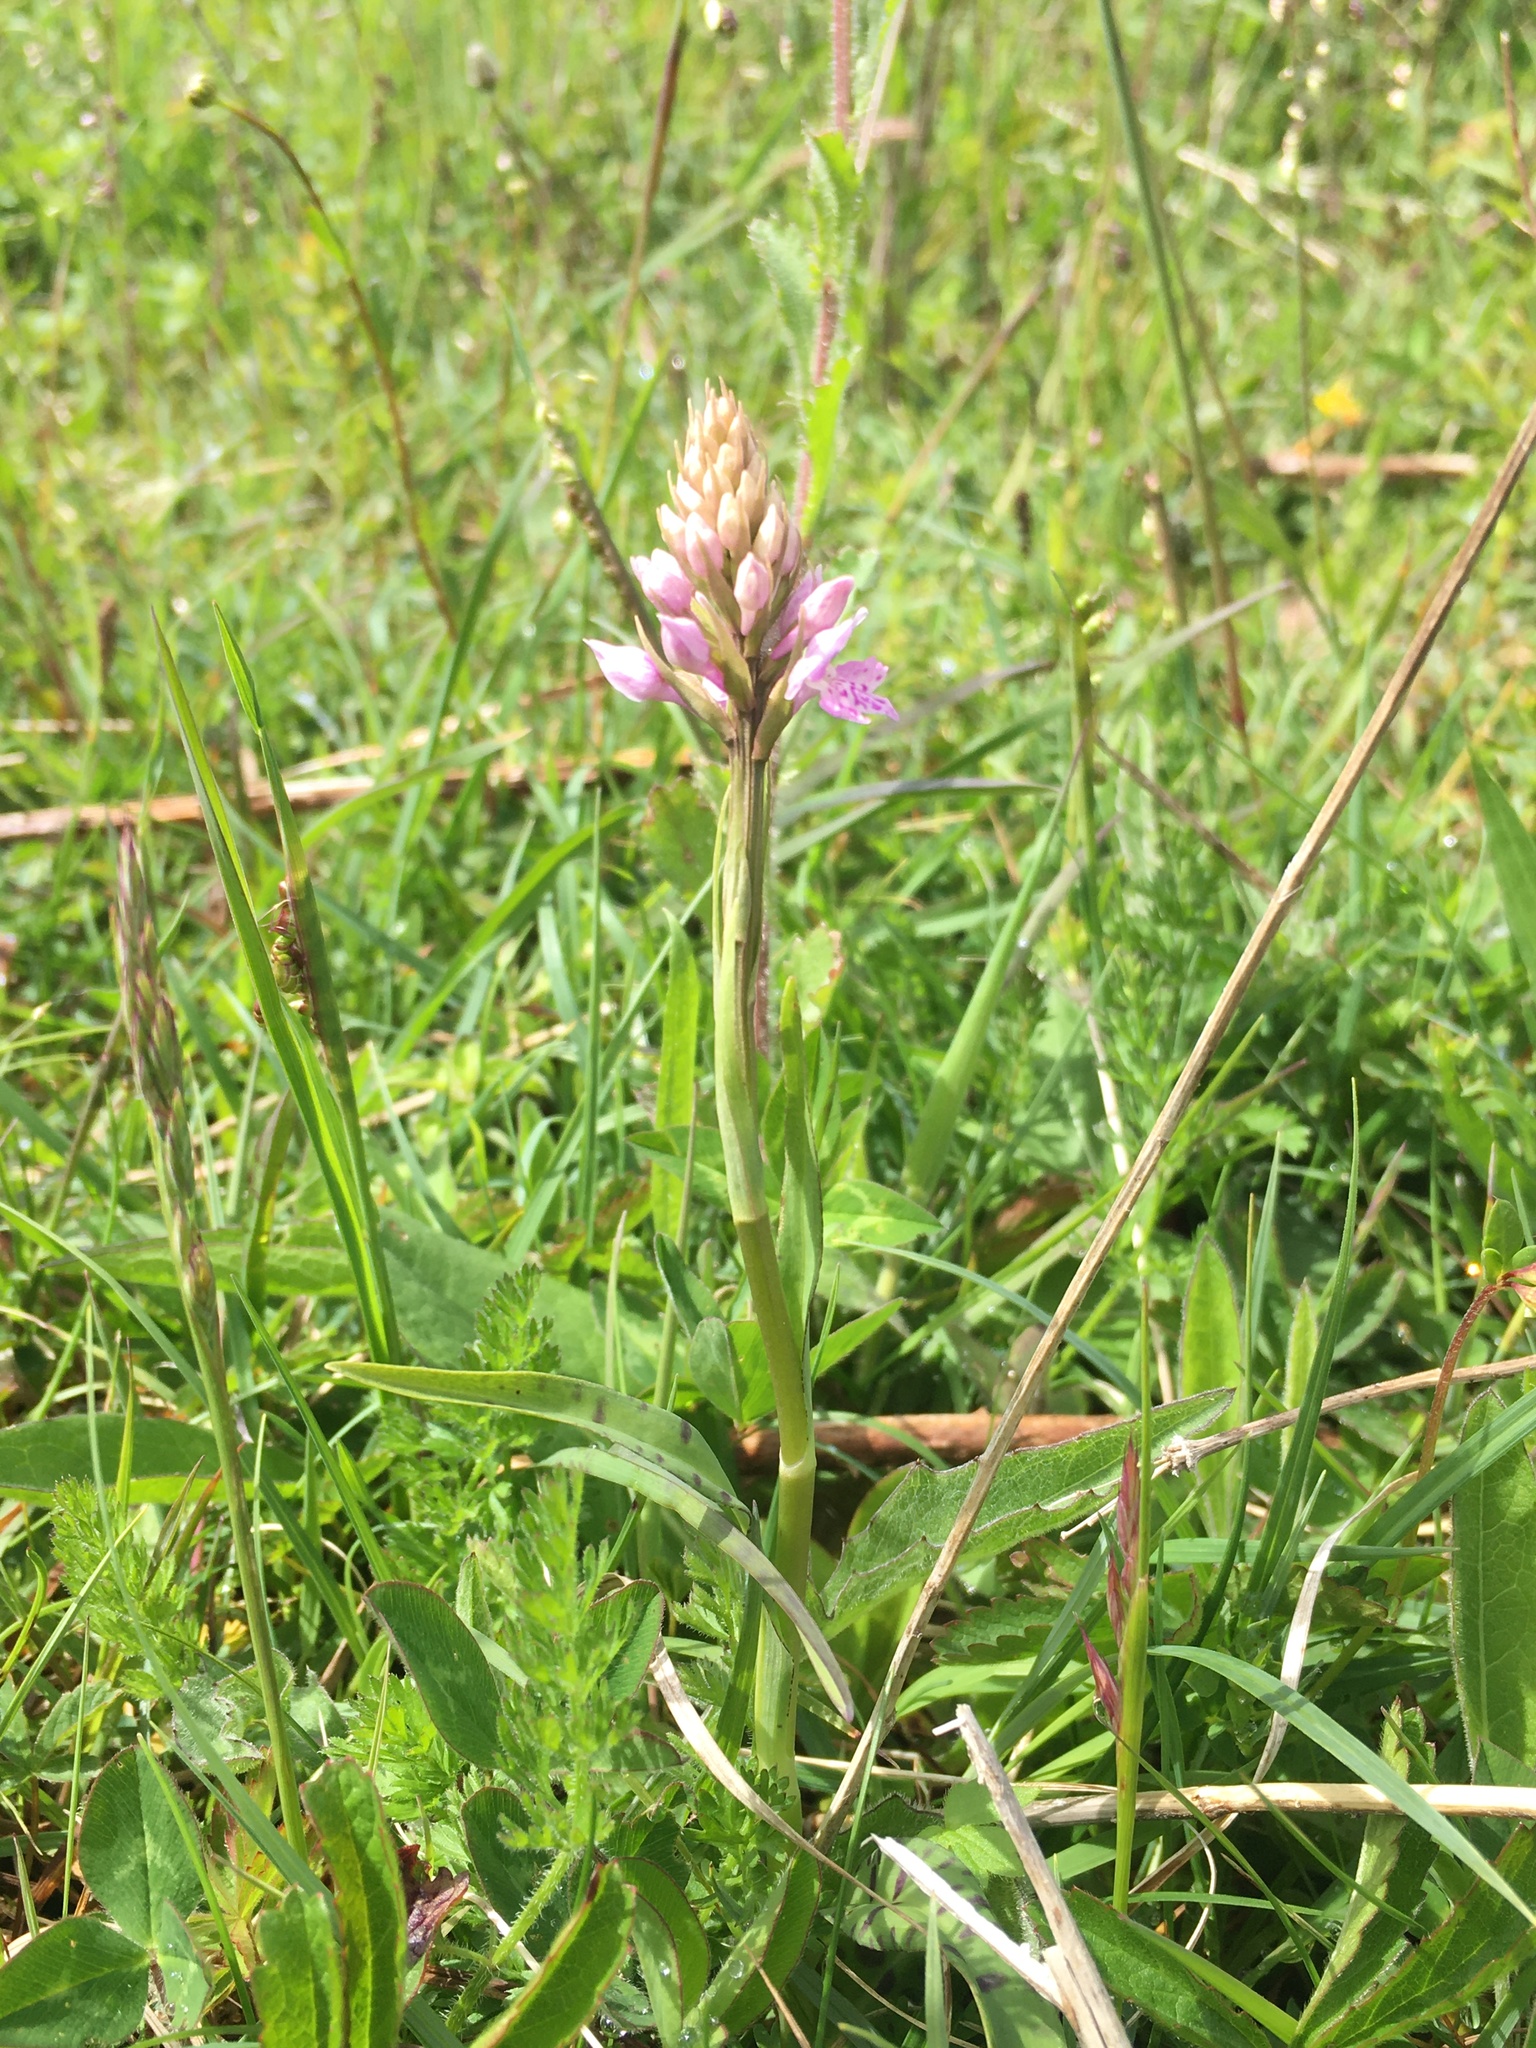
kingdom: Plantae
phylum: Tracheophyta
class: Liliopsida
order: Asparagales
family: Orchidaceae
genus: Dactylorhiza
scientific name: Dactylorhiza maculata
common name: Heath spotted-orchid
